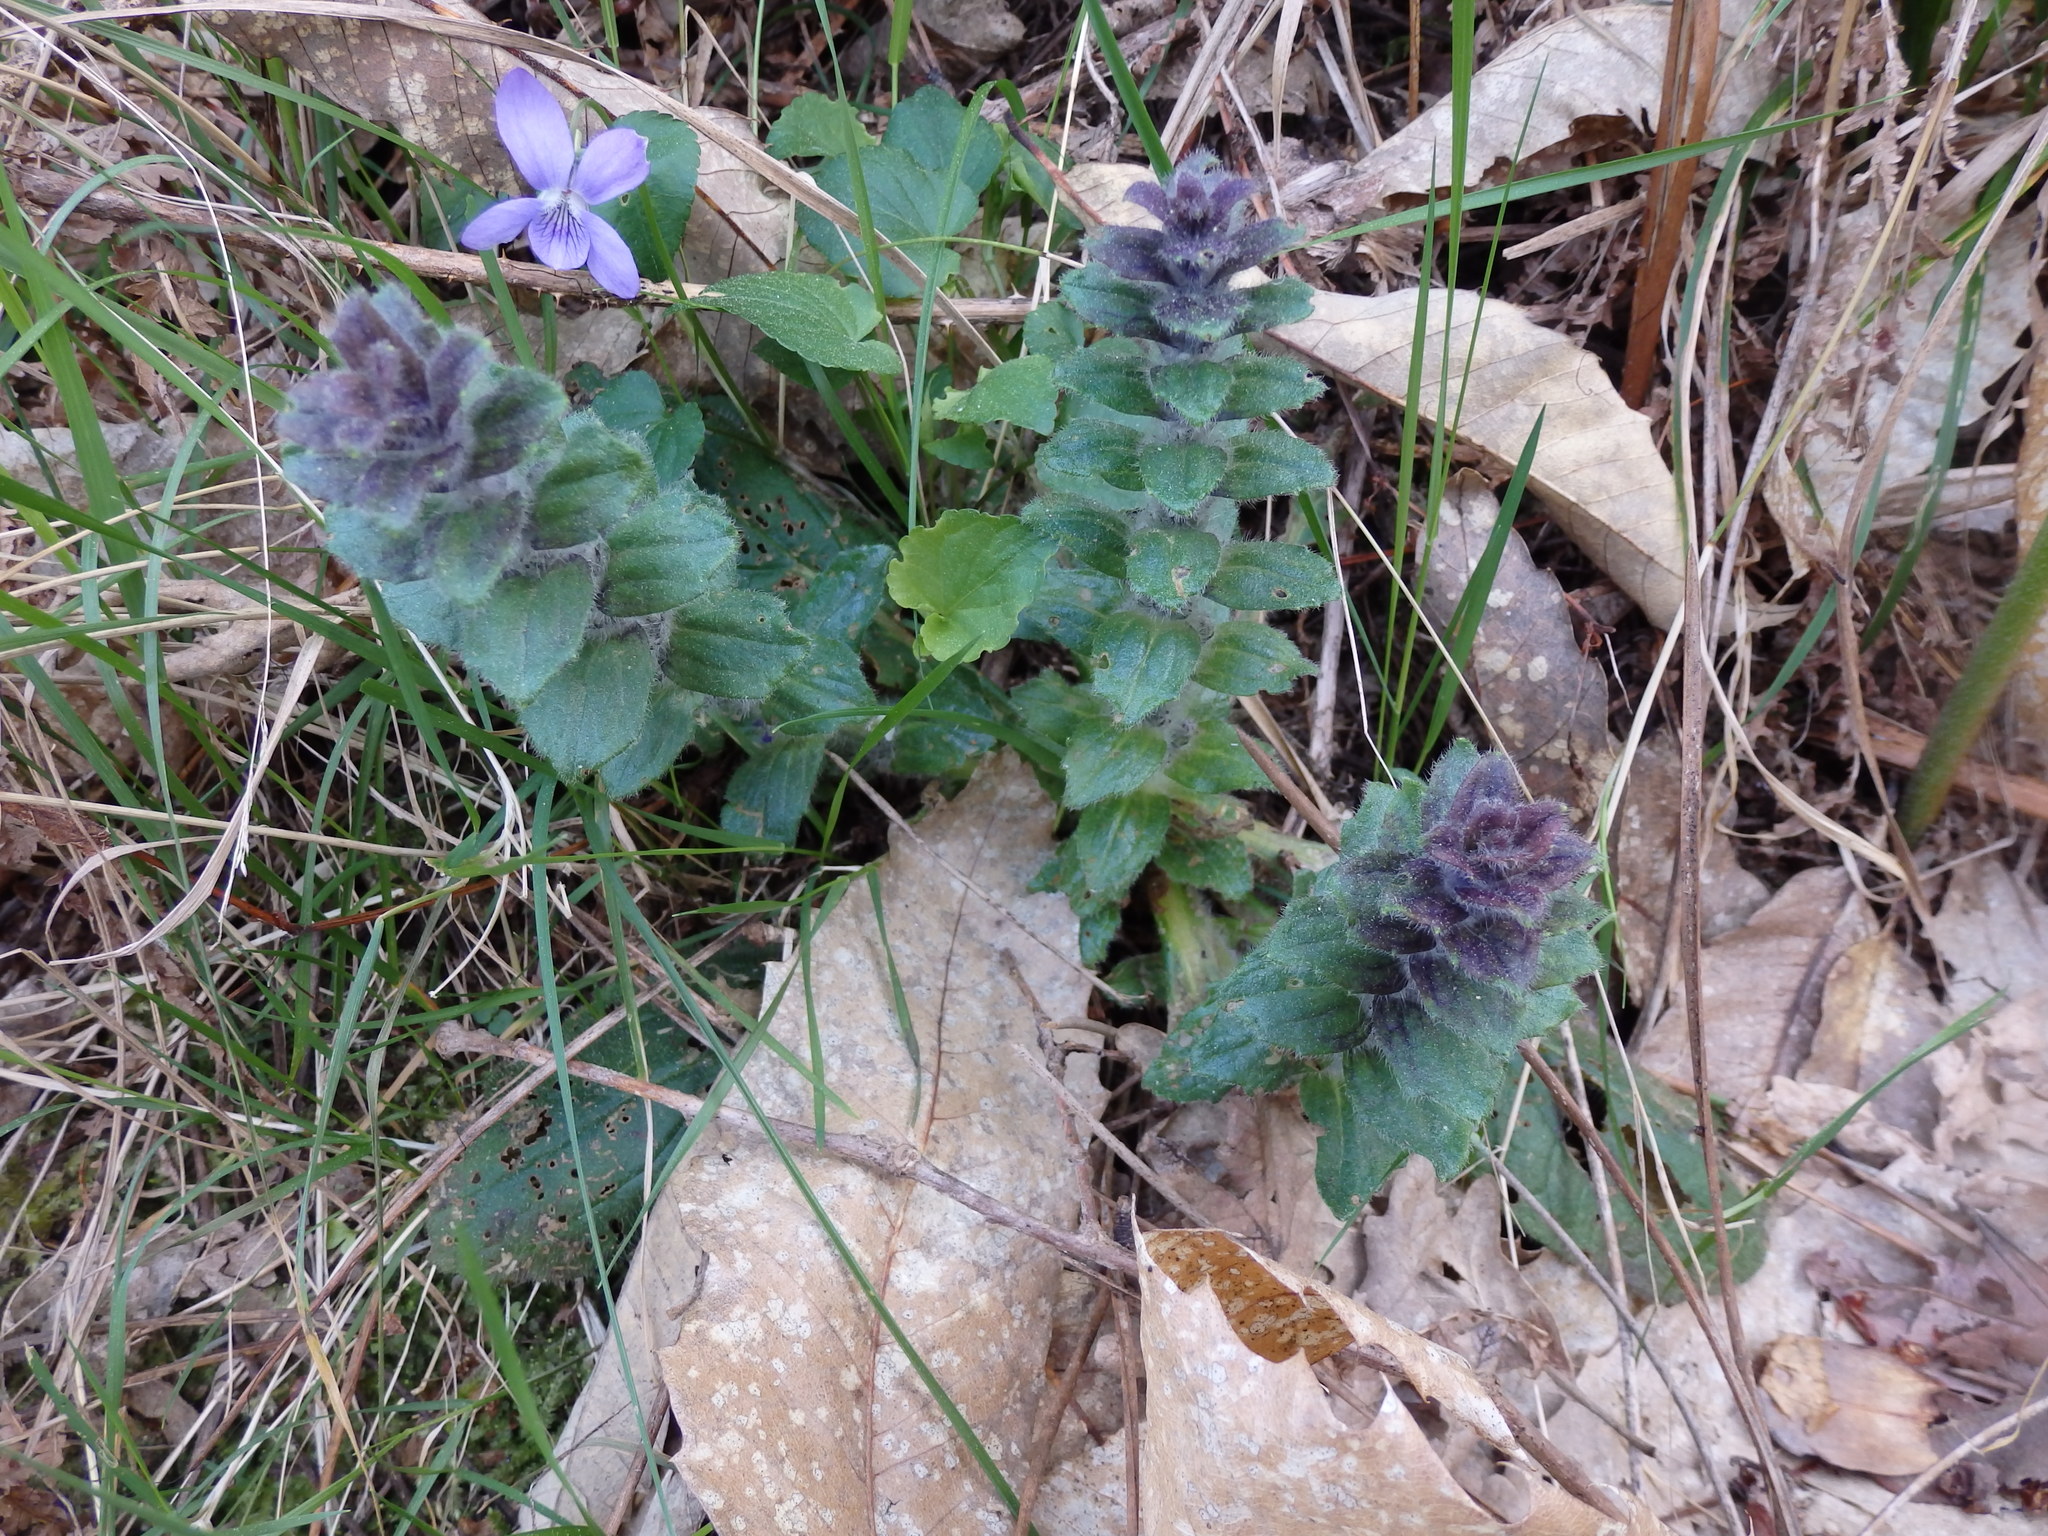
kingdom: Plantae
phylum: Tracheophyta
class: Magnoliopsida
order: Lamiales
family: Lamiaceae
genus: Ajuga
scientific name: Ajuga pyramidalis
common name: Pyramid bugle
